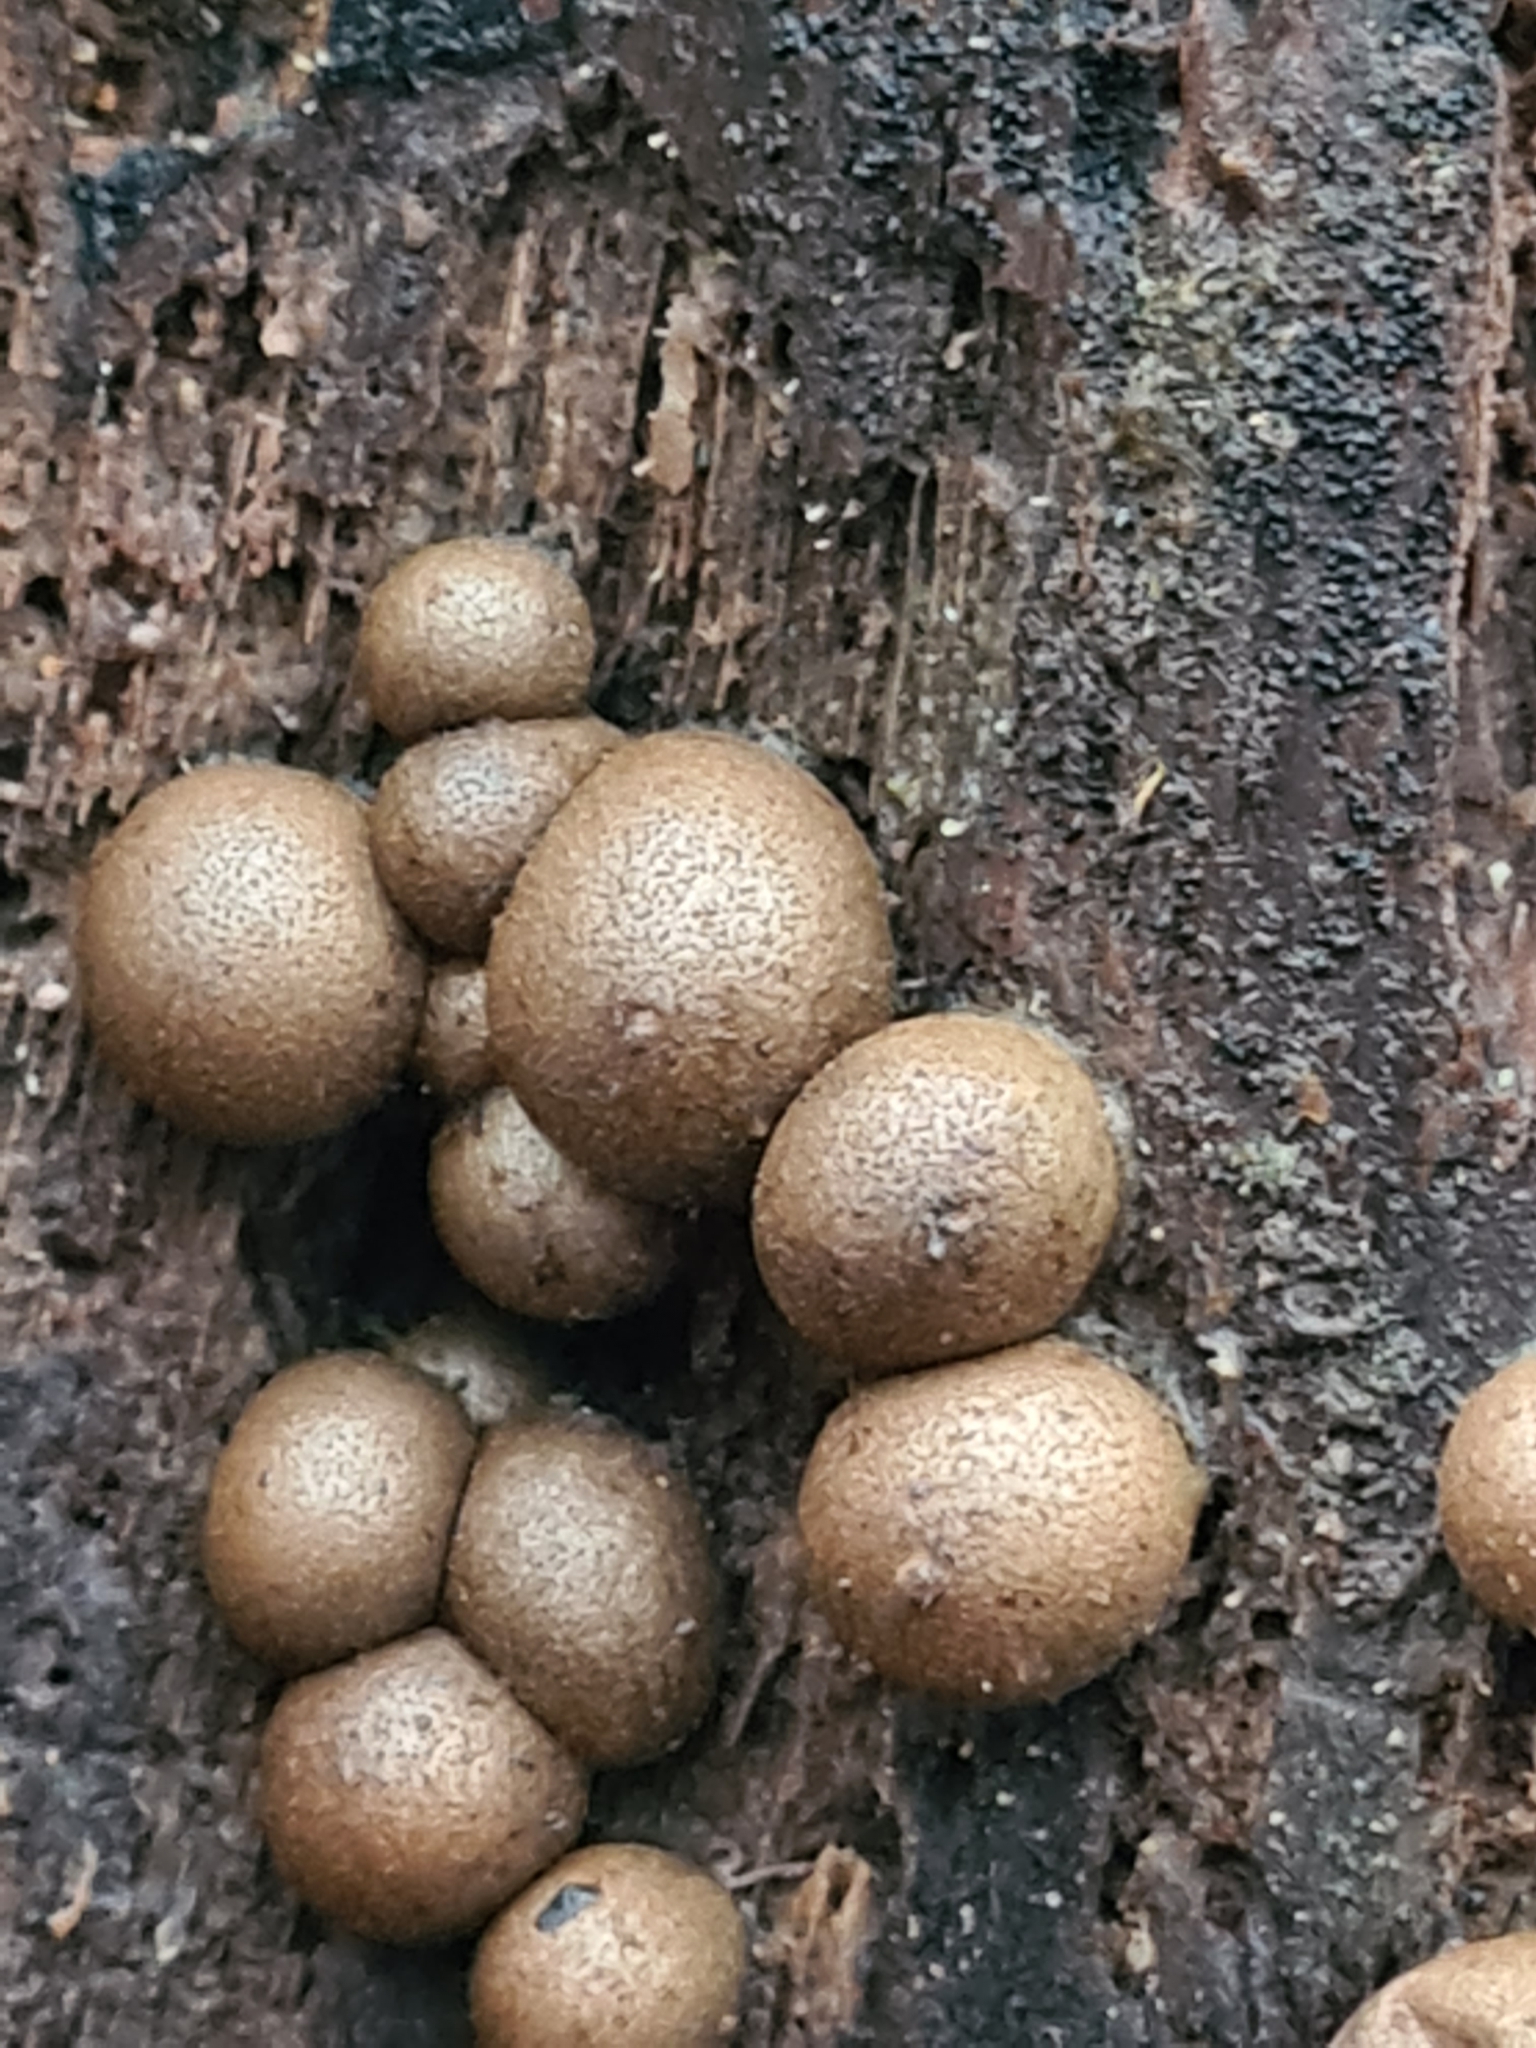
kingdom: Protozoa
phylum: Mycetozoa
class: Myxomycetes
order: Cribrariales
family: Tubiferaceae
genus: Lycogala
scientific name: Lycogala epidendrum
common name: Wolf's milk
